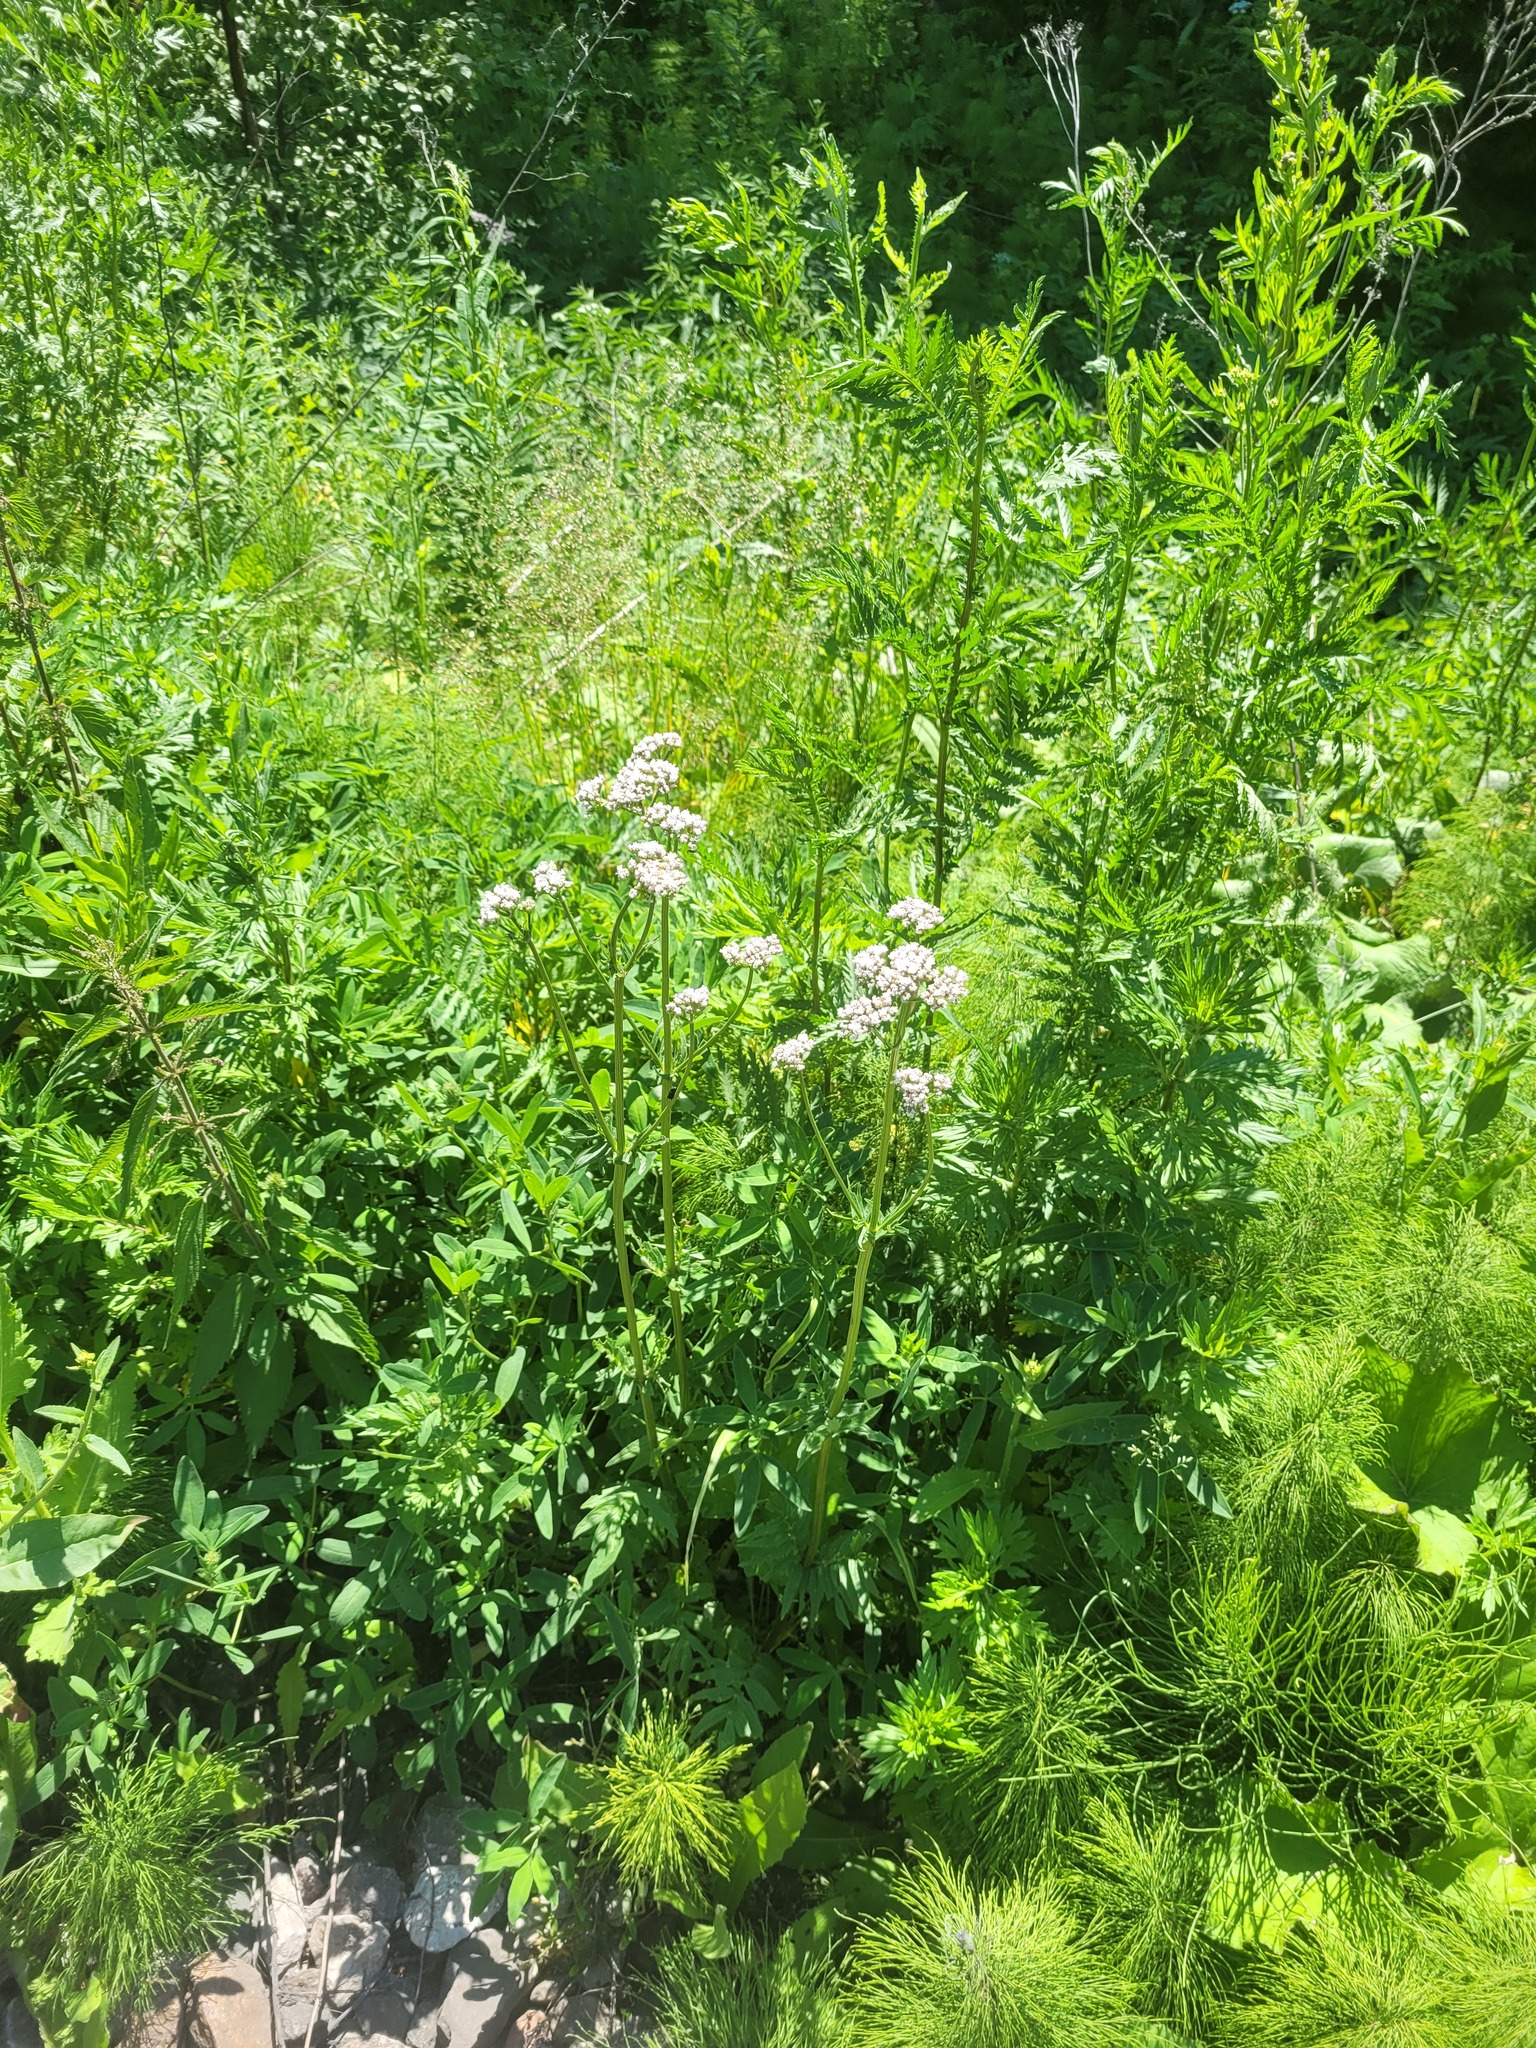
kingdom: Plantae
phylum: Tracheophyta
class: Magnoliopsida
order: Dipsacales
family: Caprifoliaceae
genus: Valeriana
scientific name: Valeriana officinalis
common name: Common valerian
